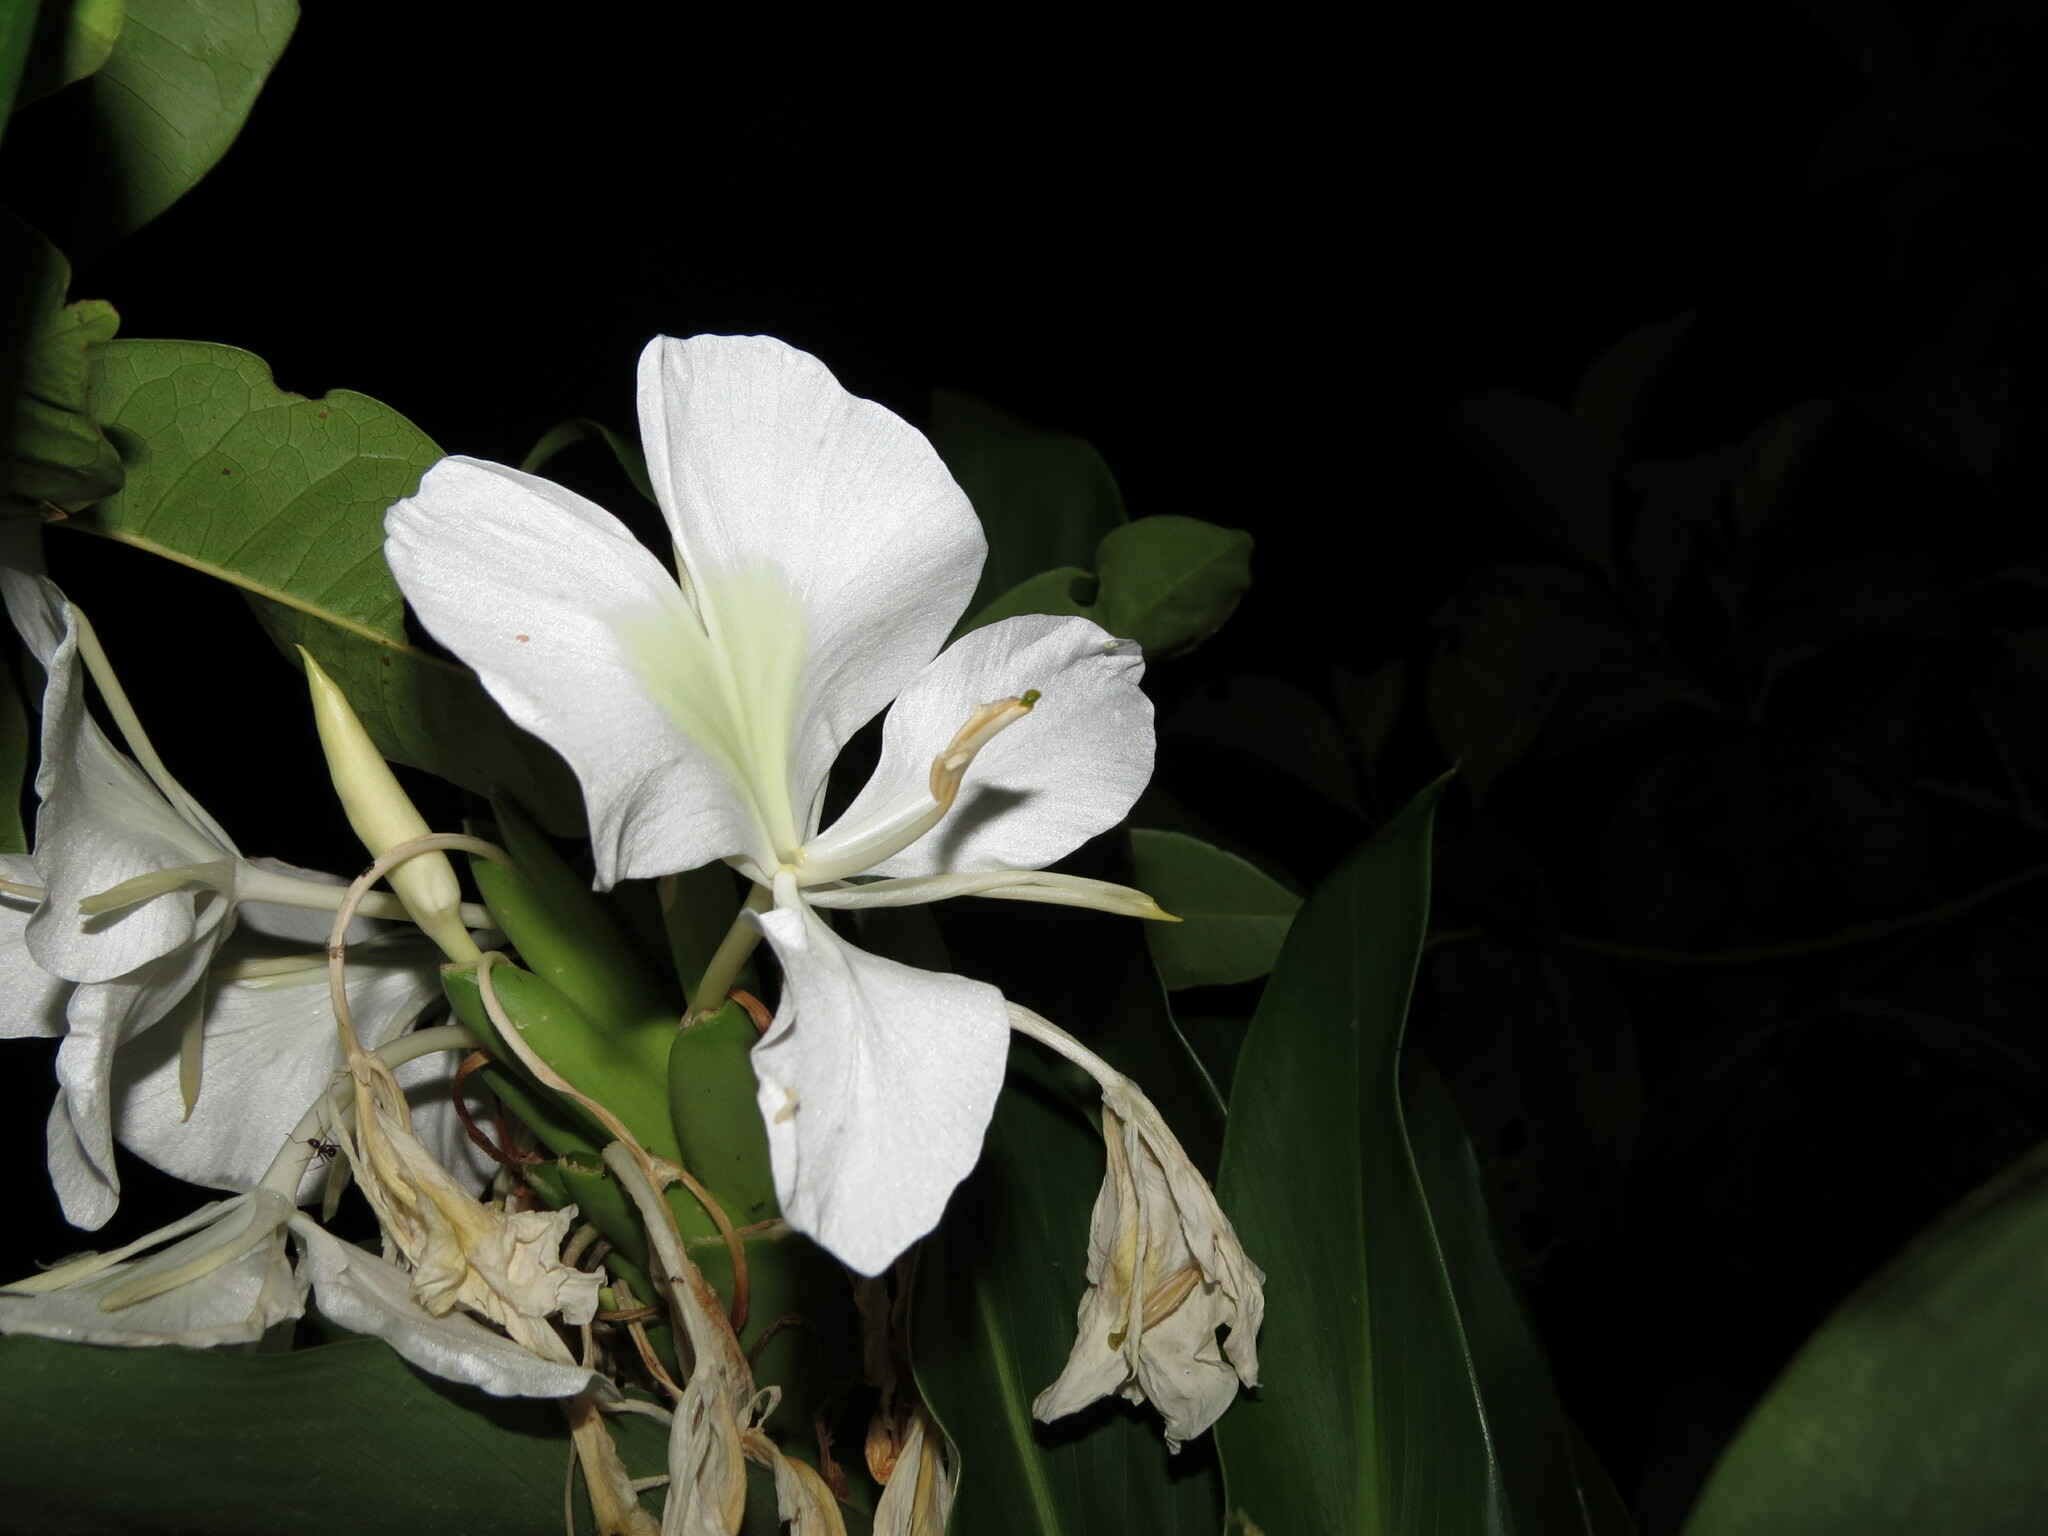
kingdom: Plantae
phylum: Tracheophyta
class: Liliopsida
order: Zingiberales
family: Zingiberaceae
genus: Hedychium
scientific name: Hedychium coronarium
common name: White garland-lily
